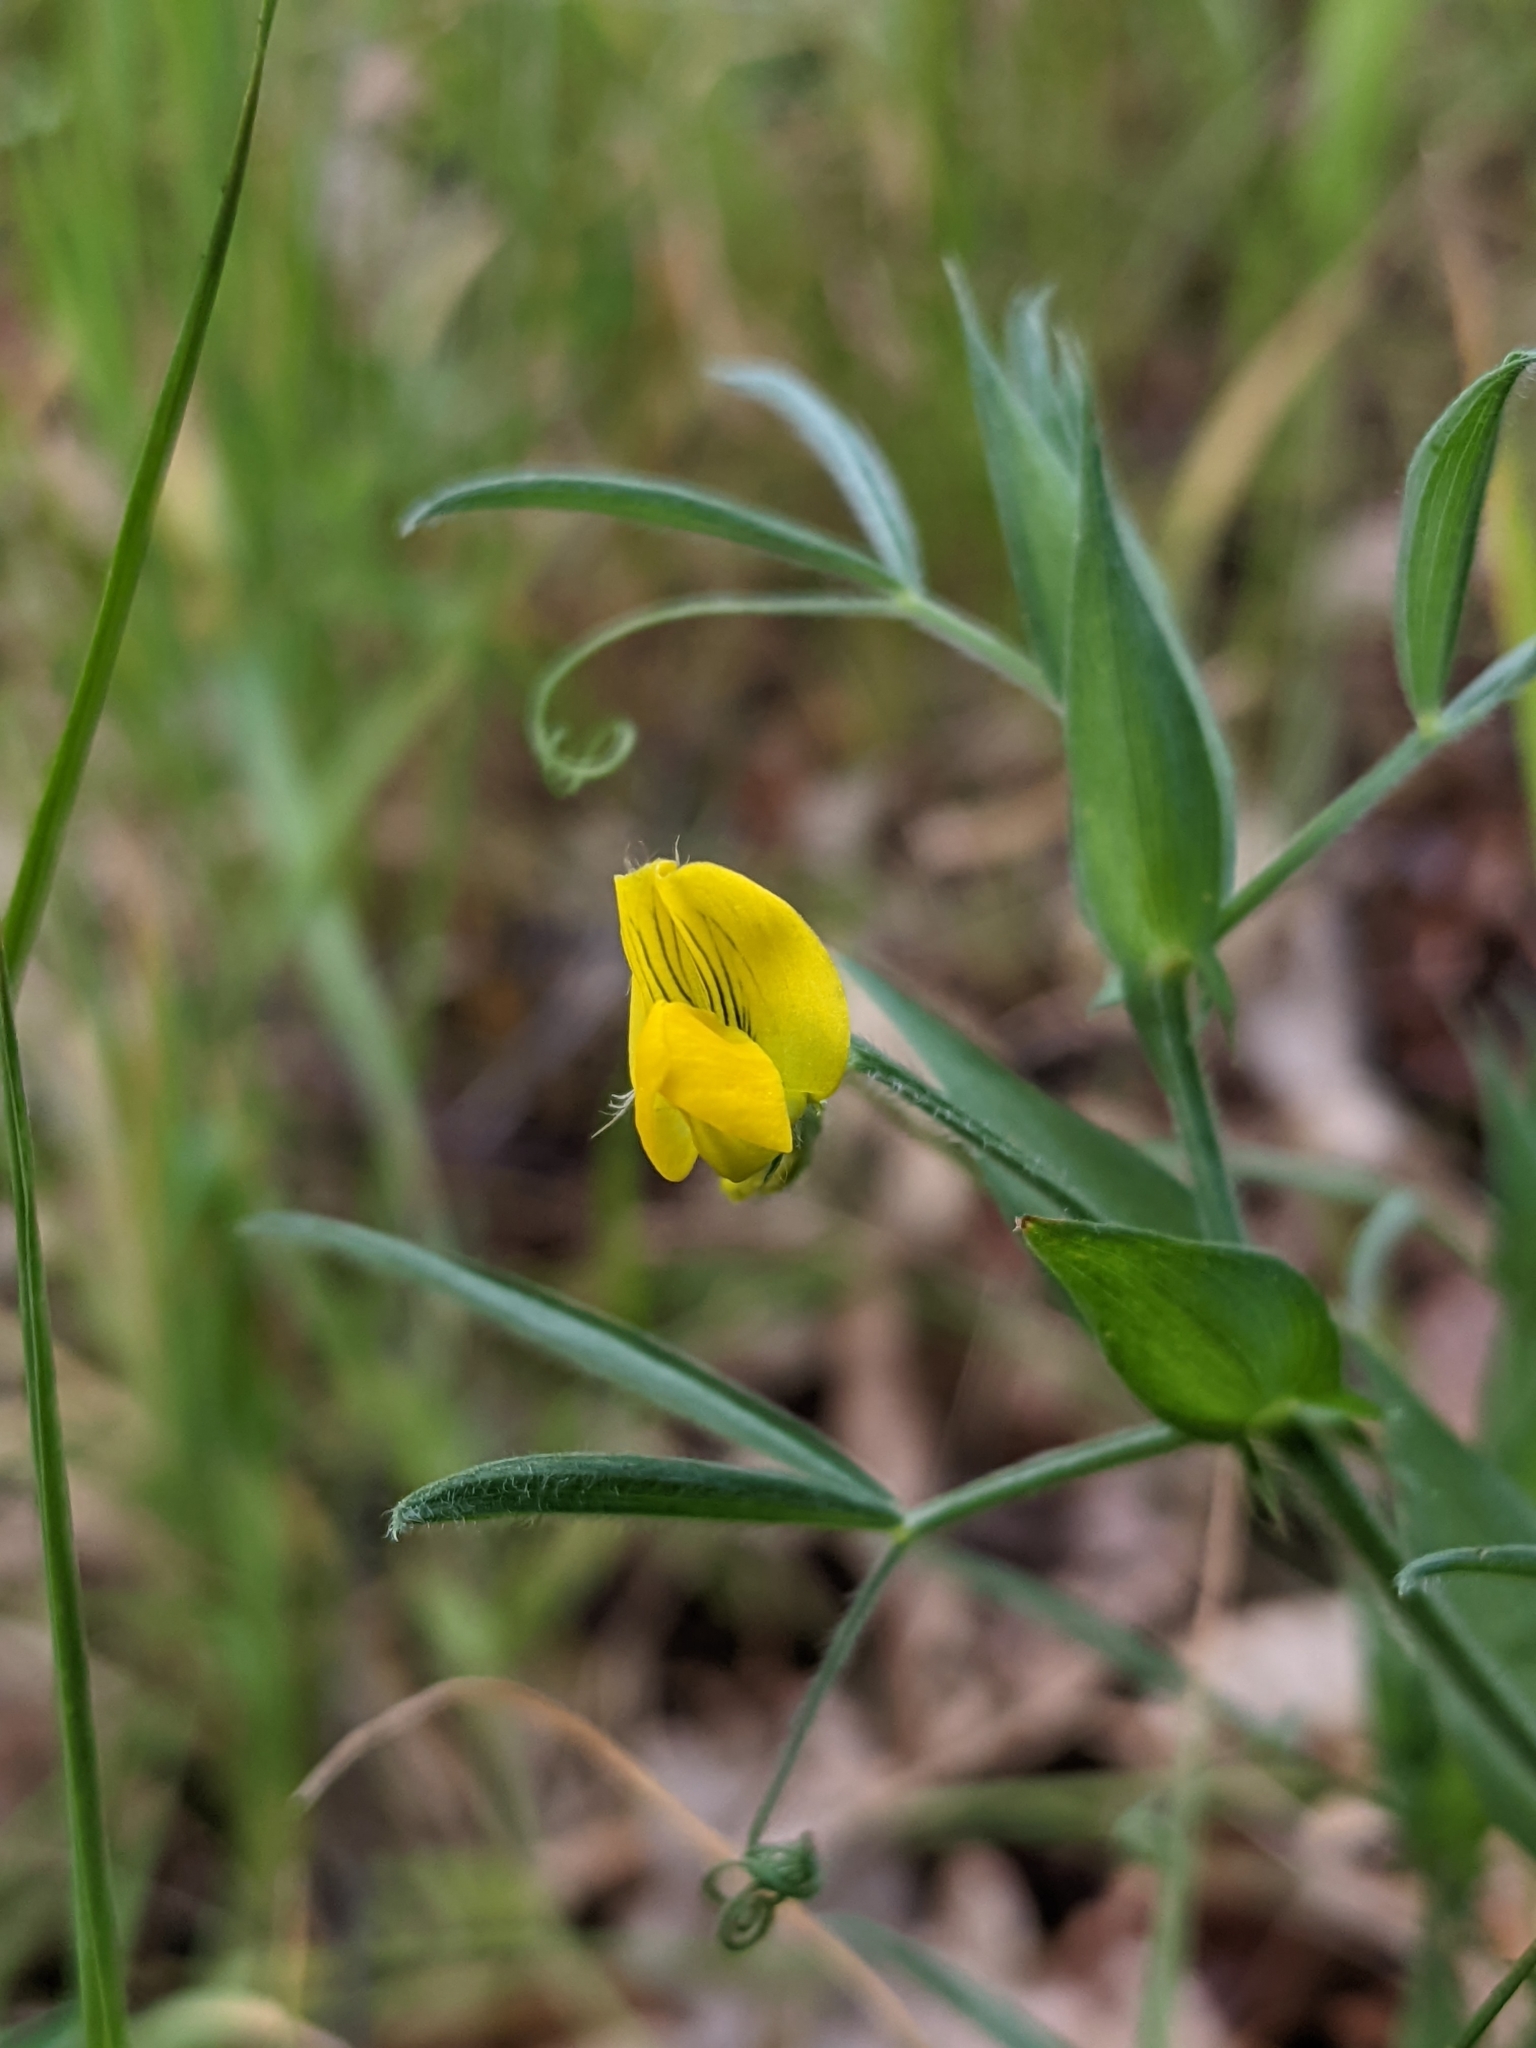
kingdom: Plantae
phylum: Tracheophyta
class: Magnoliopsida
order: Fabales
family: Fabaceae
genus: Lathyrus
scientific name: Lathyrus pratensis
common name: Meadow vetchling
